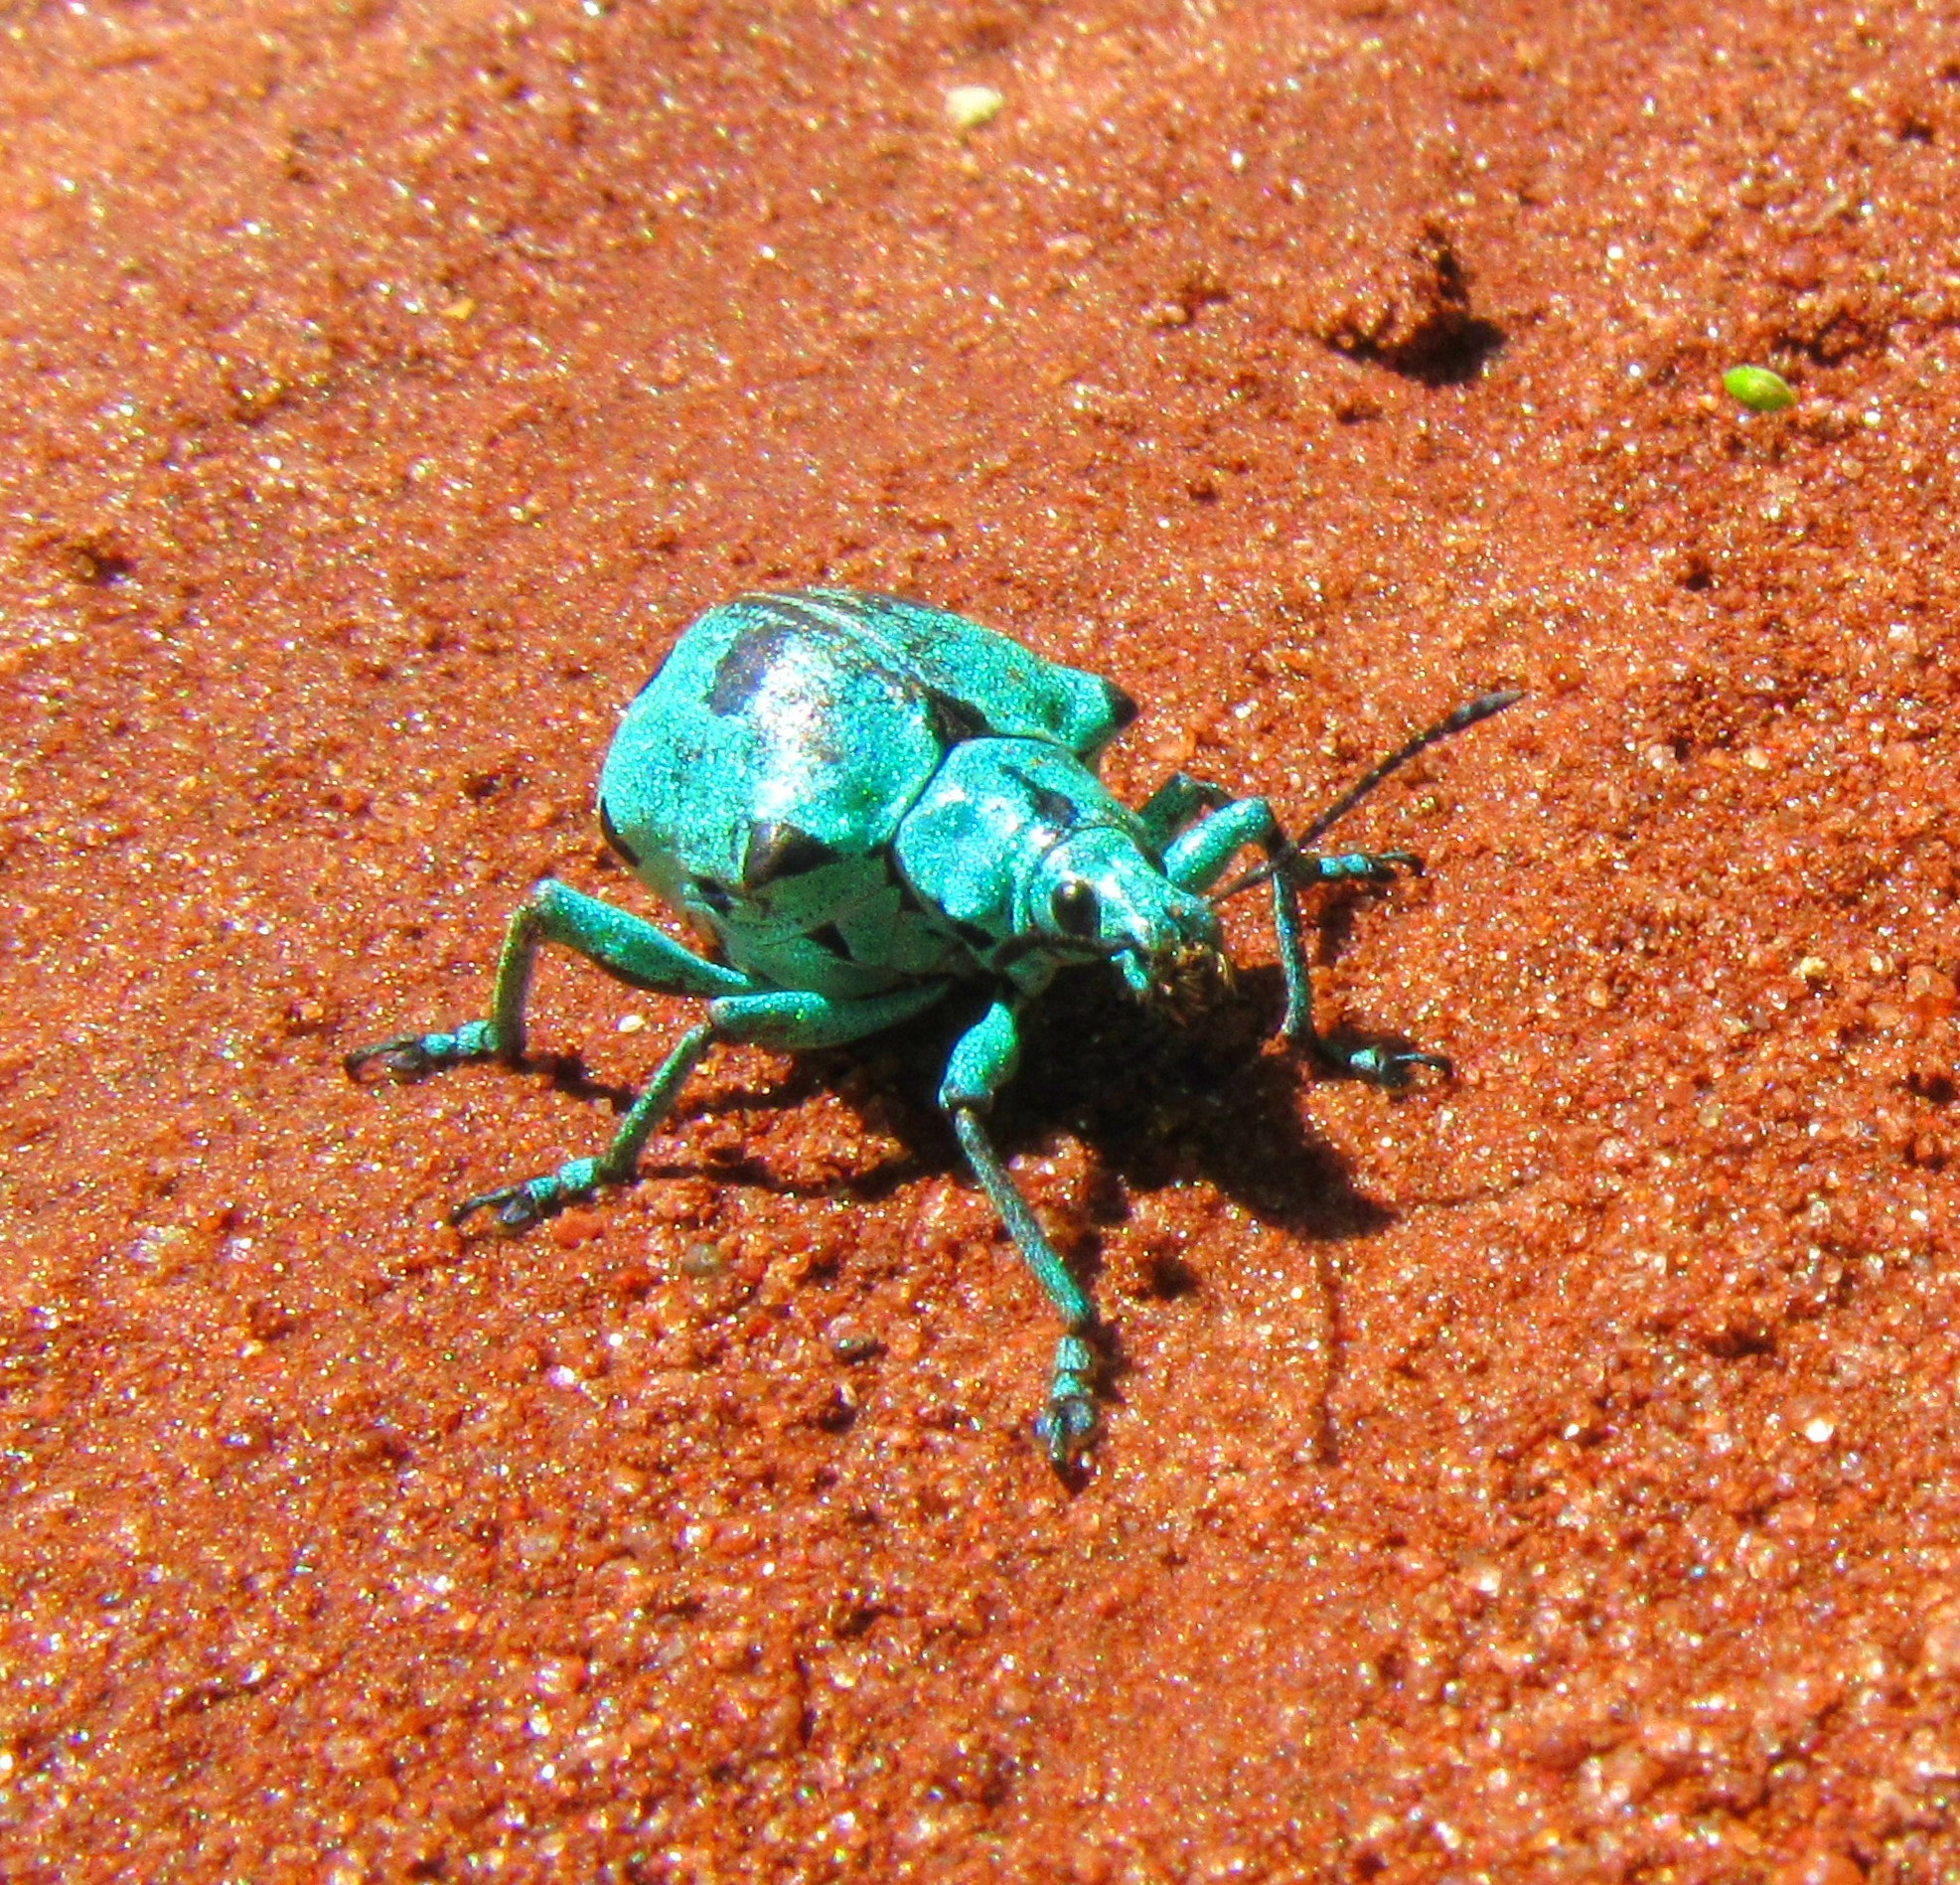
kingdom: Animalia
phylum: Arthropoda
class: Insecta
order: Coleoptera
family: Curculionidae
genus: Polyteles
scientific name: Polyteles stevenii
